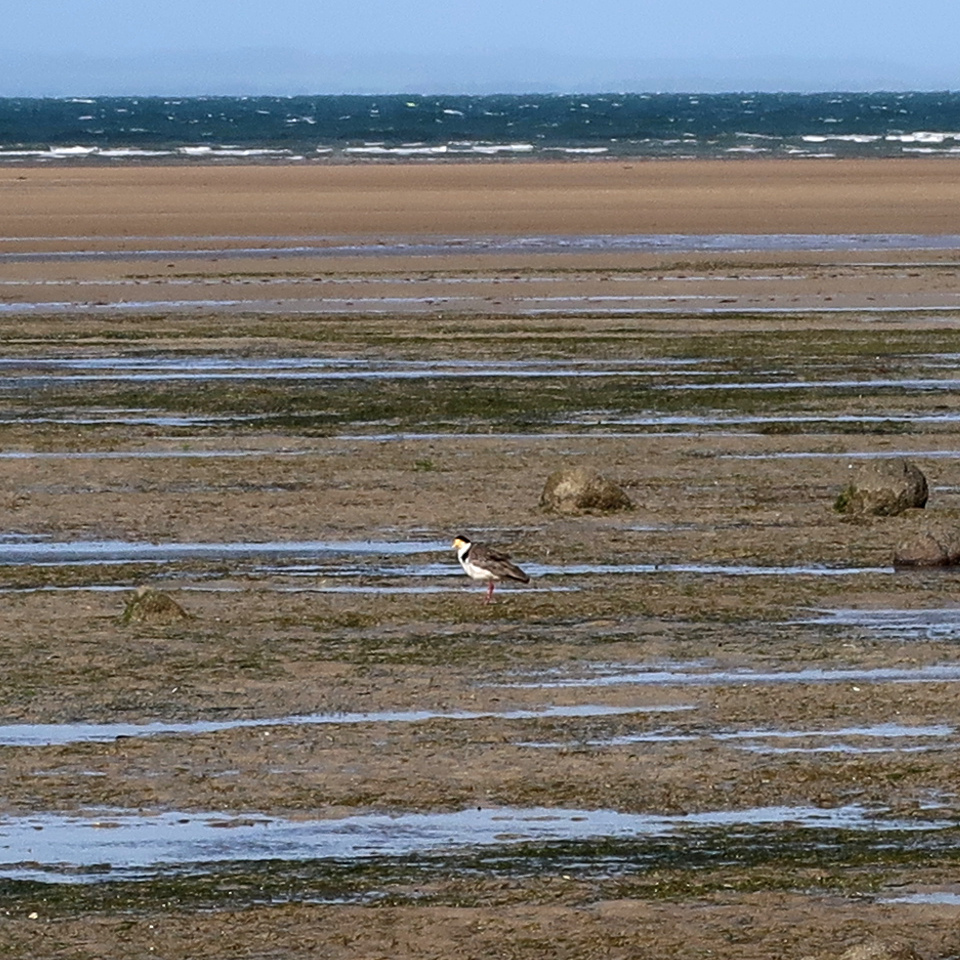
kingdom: Animalia
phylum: Chordata
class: Aves
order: Charadriiformes
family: Charadriidae
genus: Vanellus
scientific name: Vanellus miles
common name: Masked lapwing
